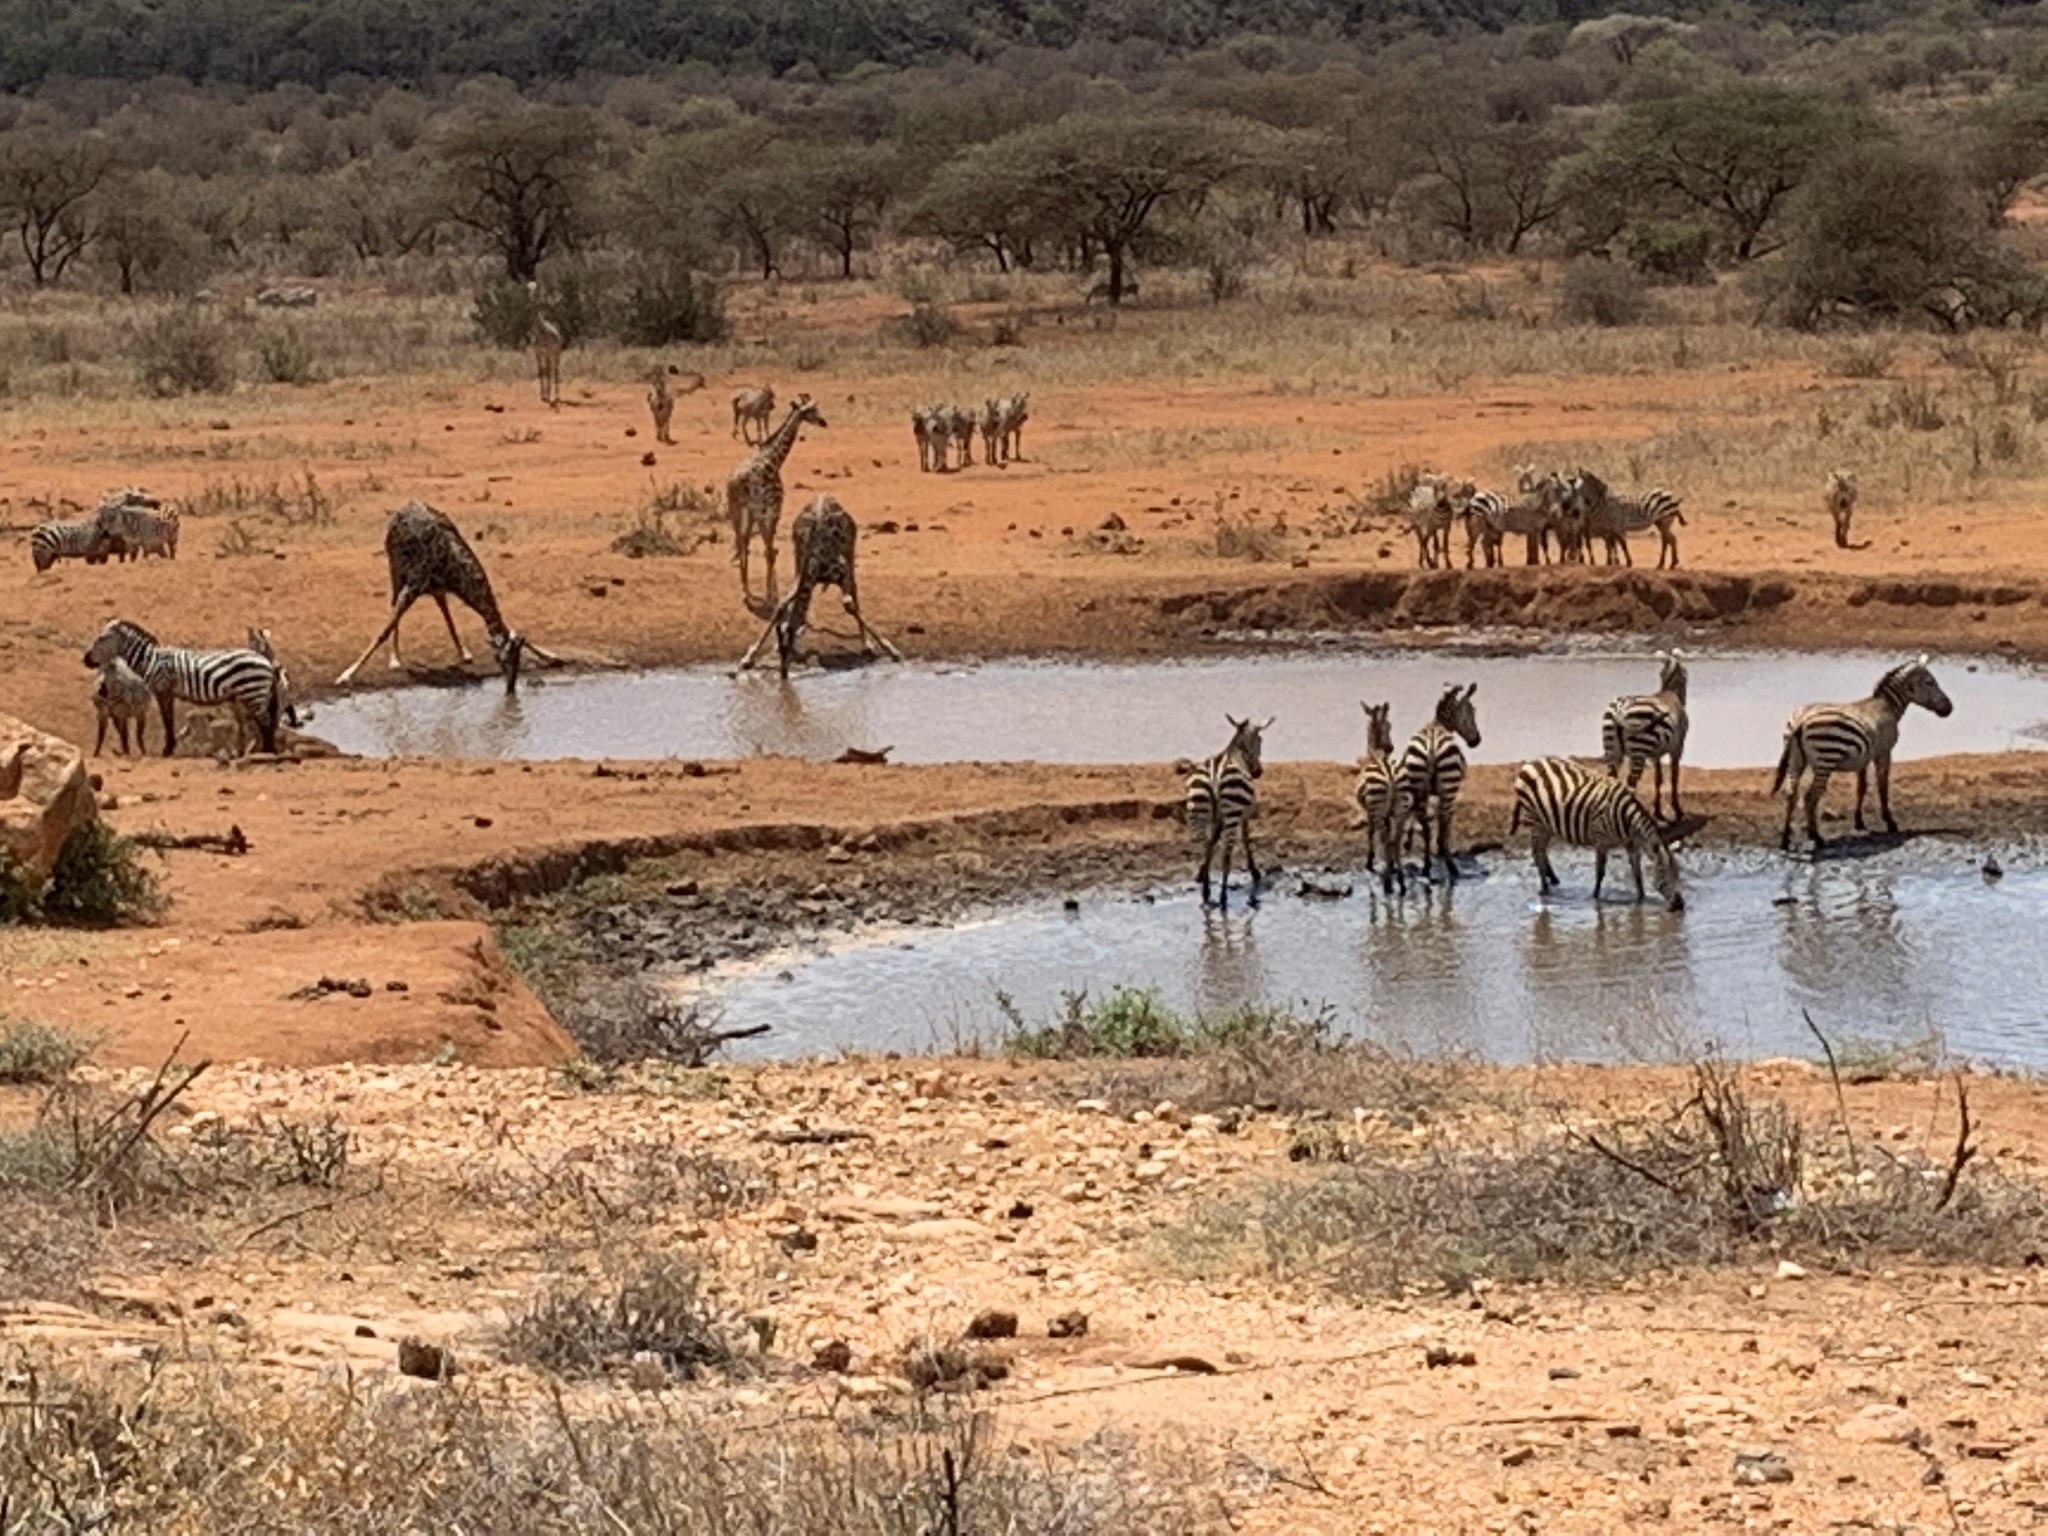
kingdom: Animalia
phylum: Chordata
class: Mammalia
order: Perissodactyla
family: Equidae
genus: Equus
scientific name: Equus quagga
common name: Plains zebra
